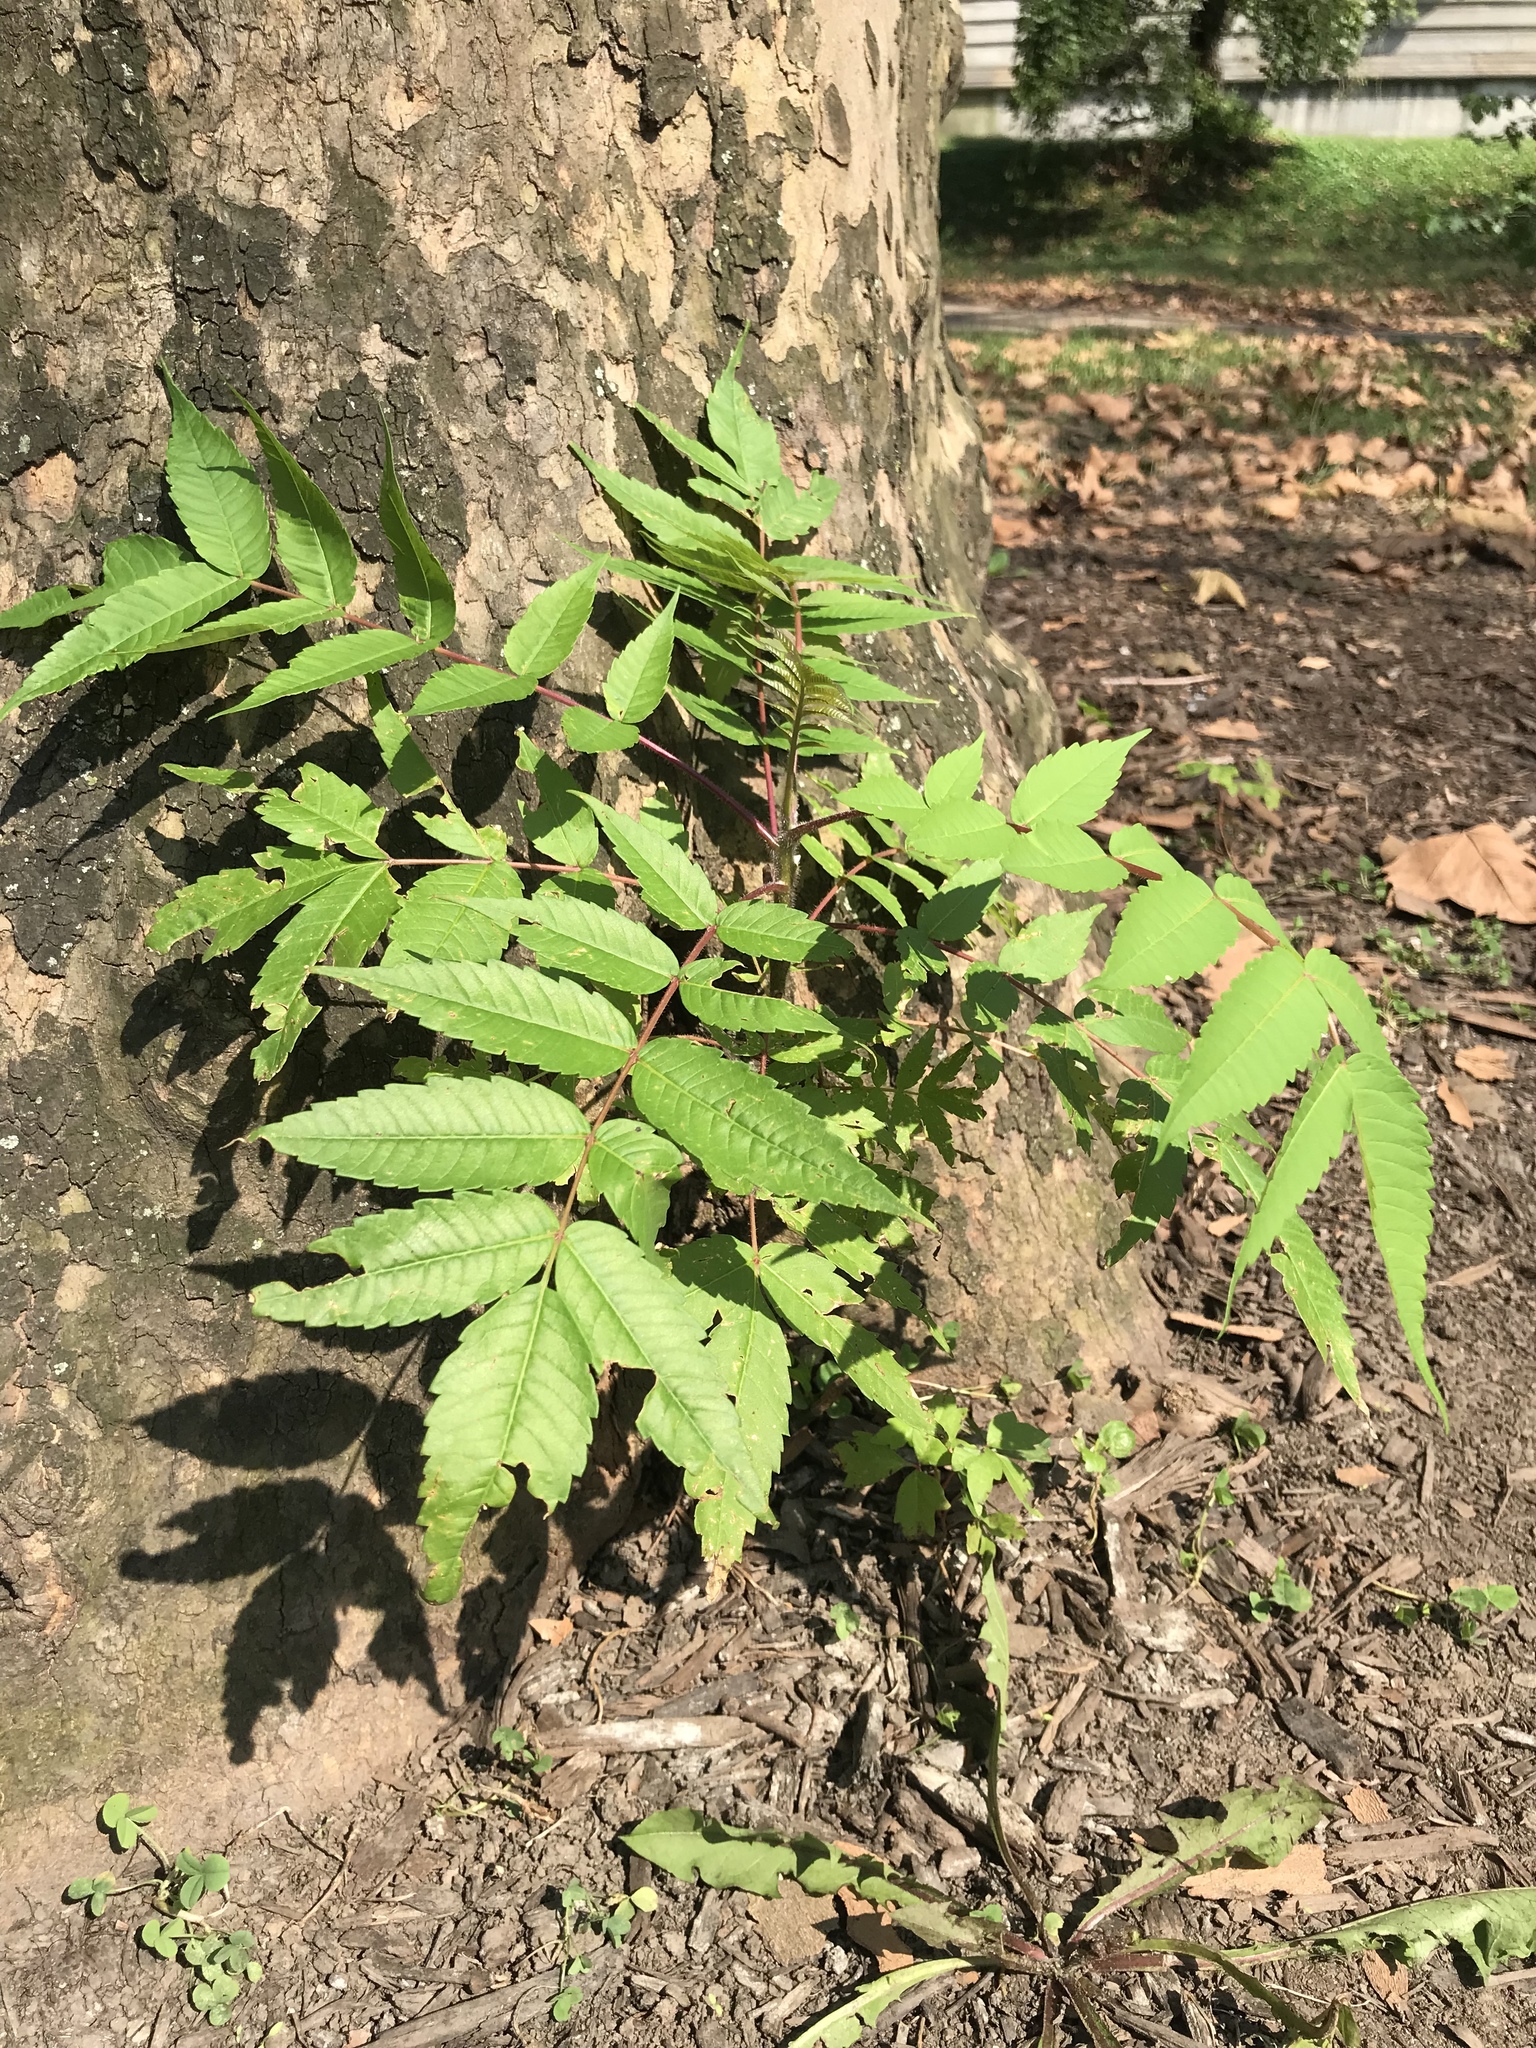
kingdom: Plantae
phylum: Tracheophyta
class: Magnoliopsida
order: Sapindales
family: Anacardiaceae
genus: Rhus
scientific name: Rhus typhina
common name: Staghorn sumac
